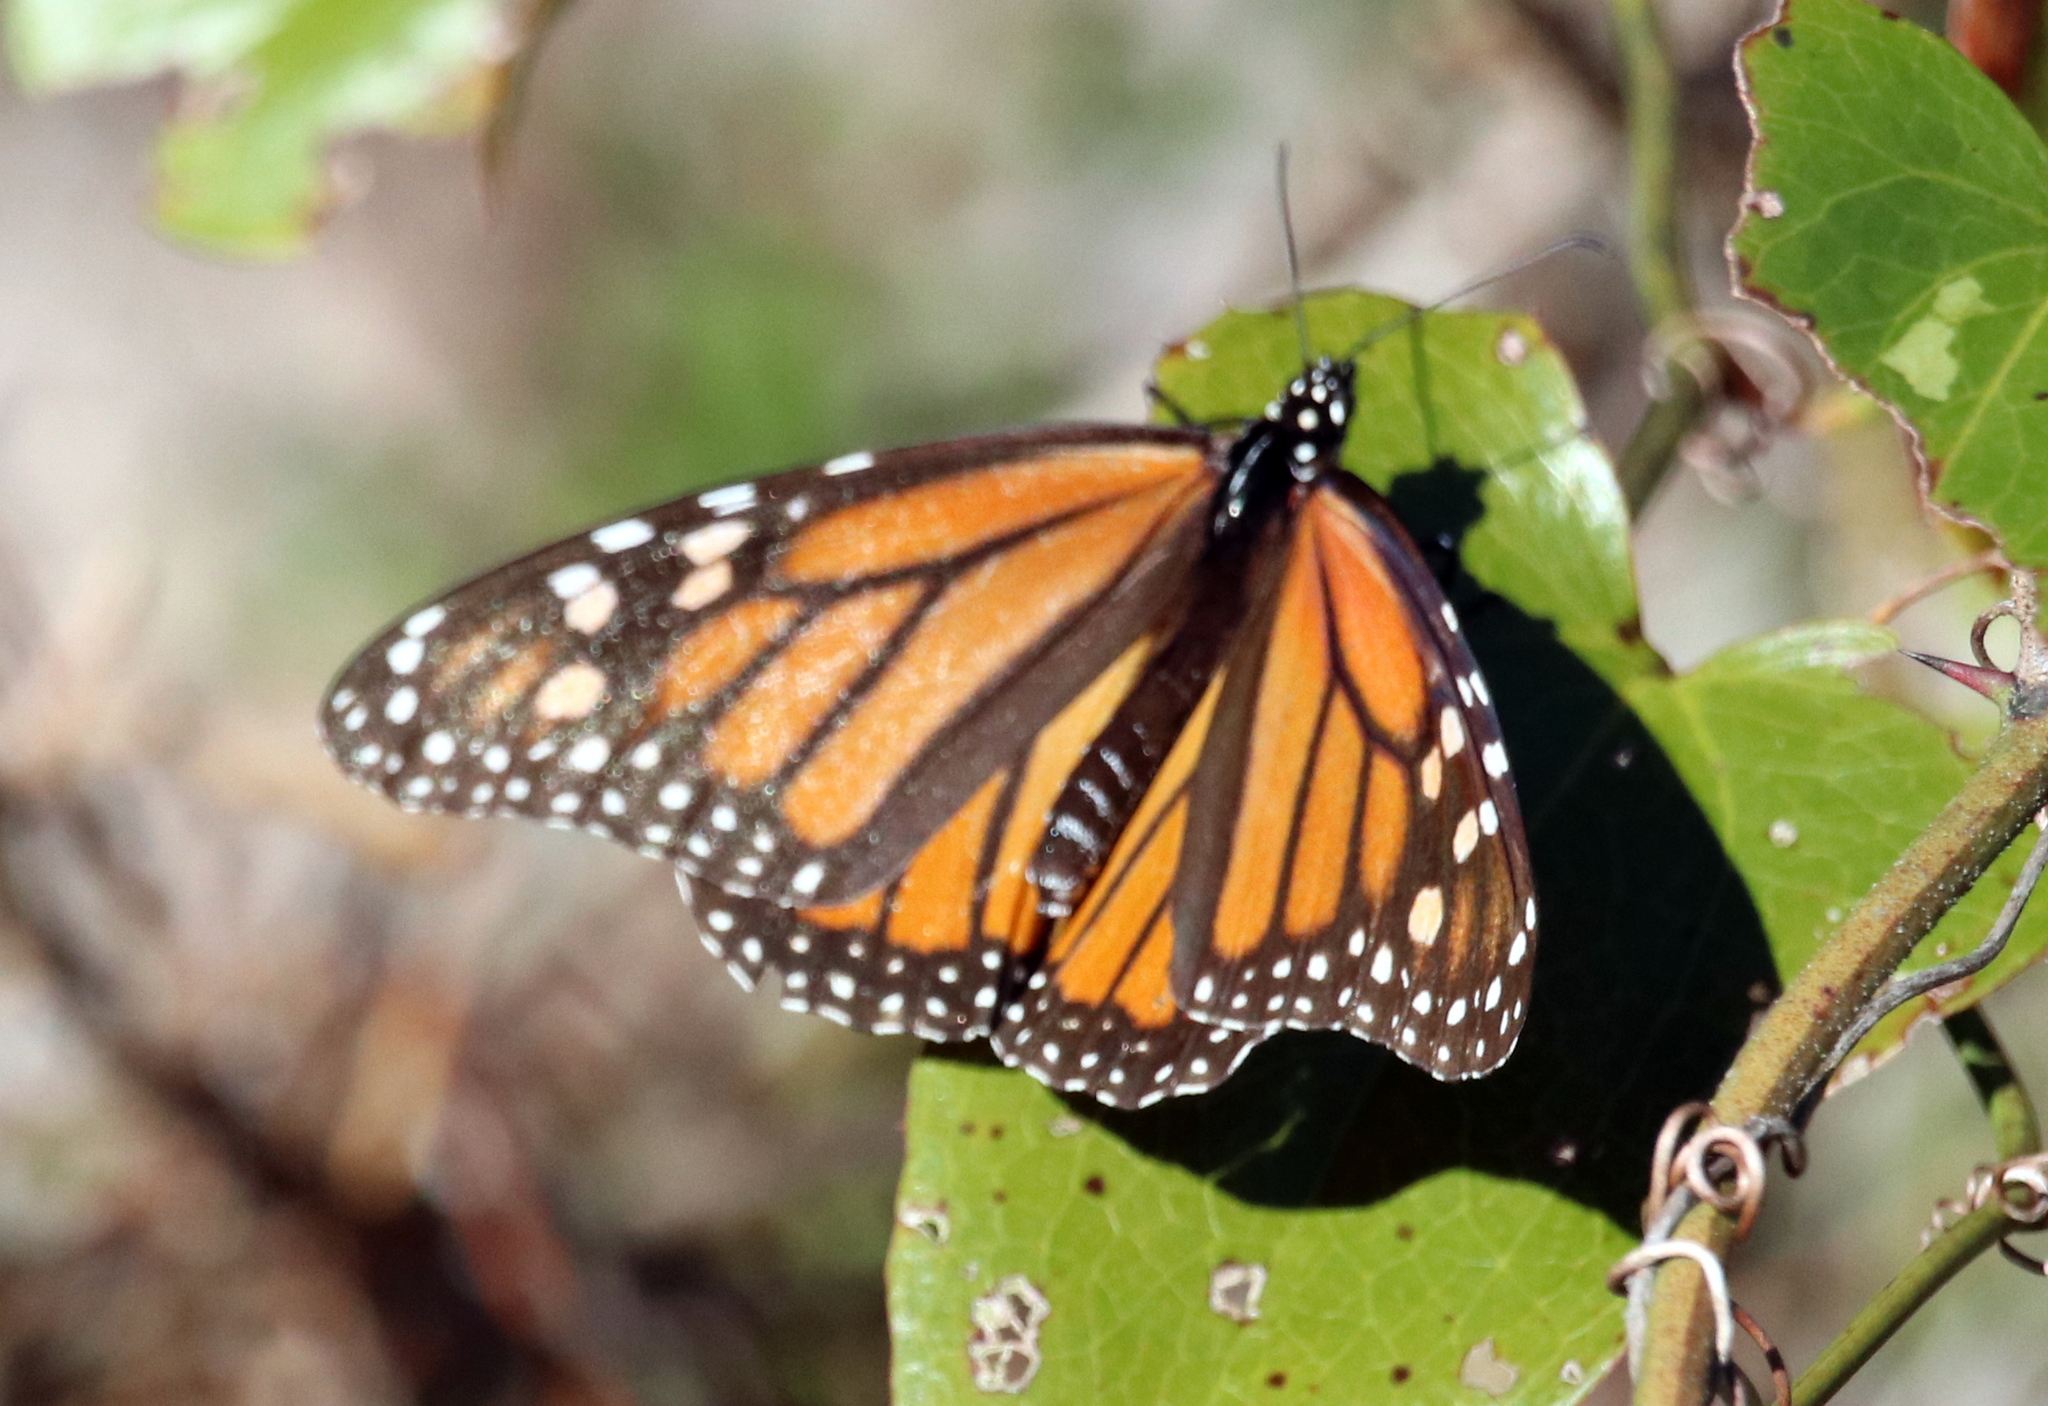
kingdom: Animalia
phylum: Arthropoda
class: Insecta
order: Lepidoptera
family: Nymphalidae
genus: Danaus
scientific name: Danaus plexippus
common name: Monarch
